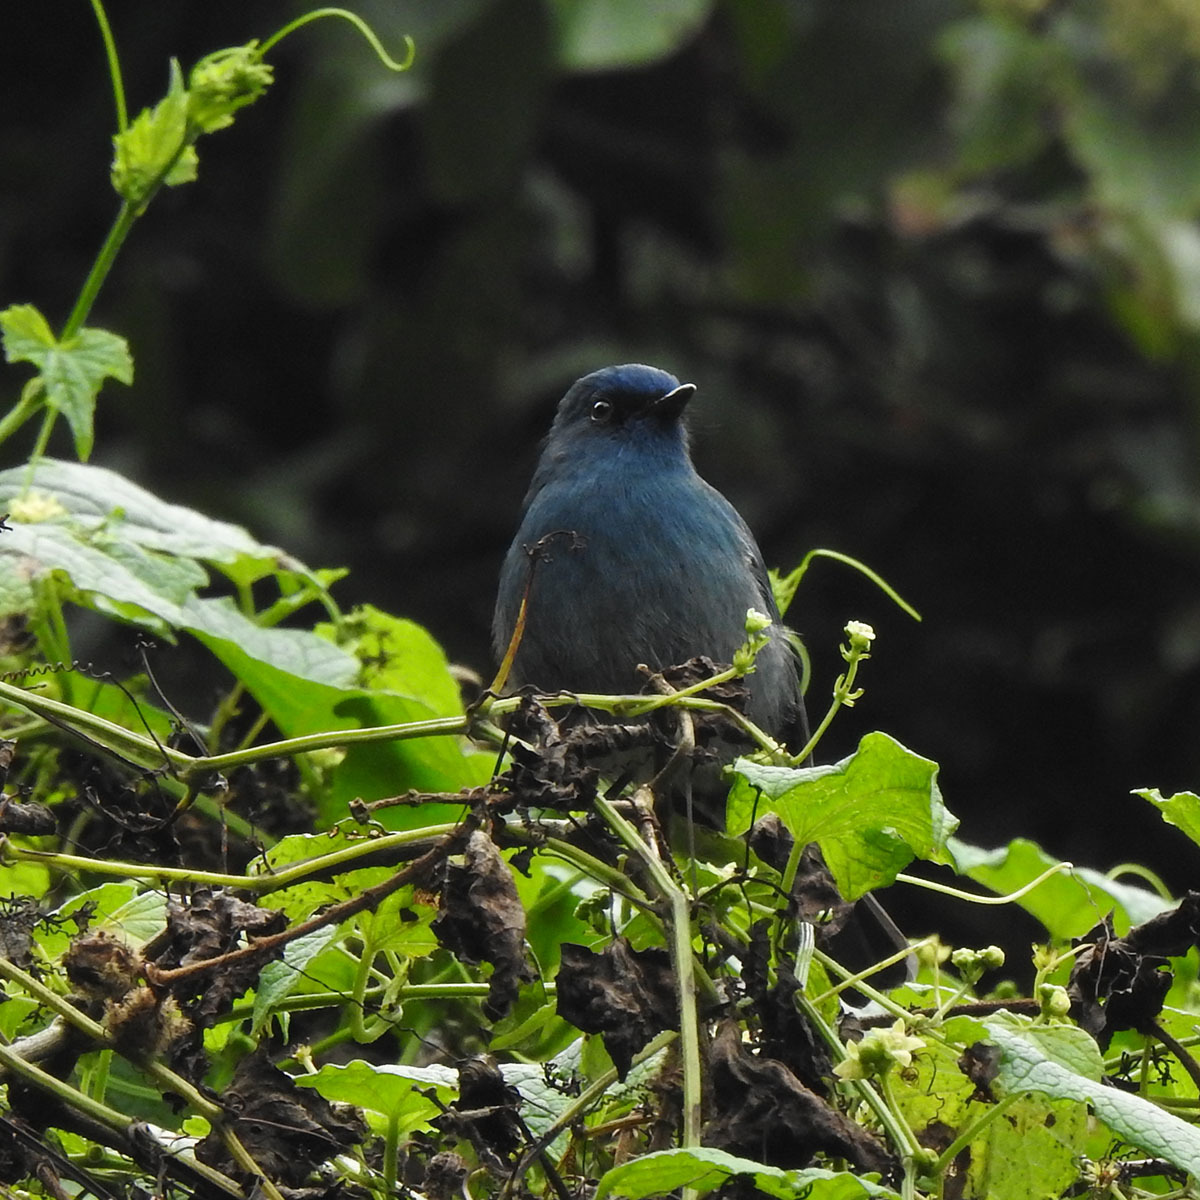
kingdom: Animalia
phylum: Chordata
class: Aves
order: Passeriformes
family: Muscicapidae
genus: Eumyias
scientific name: Eumyias albicaudatus
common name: Nilgiri flycatcher
